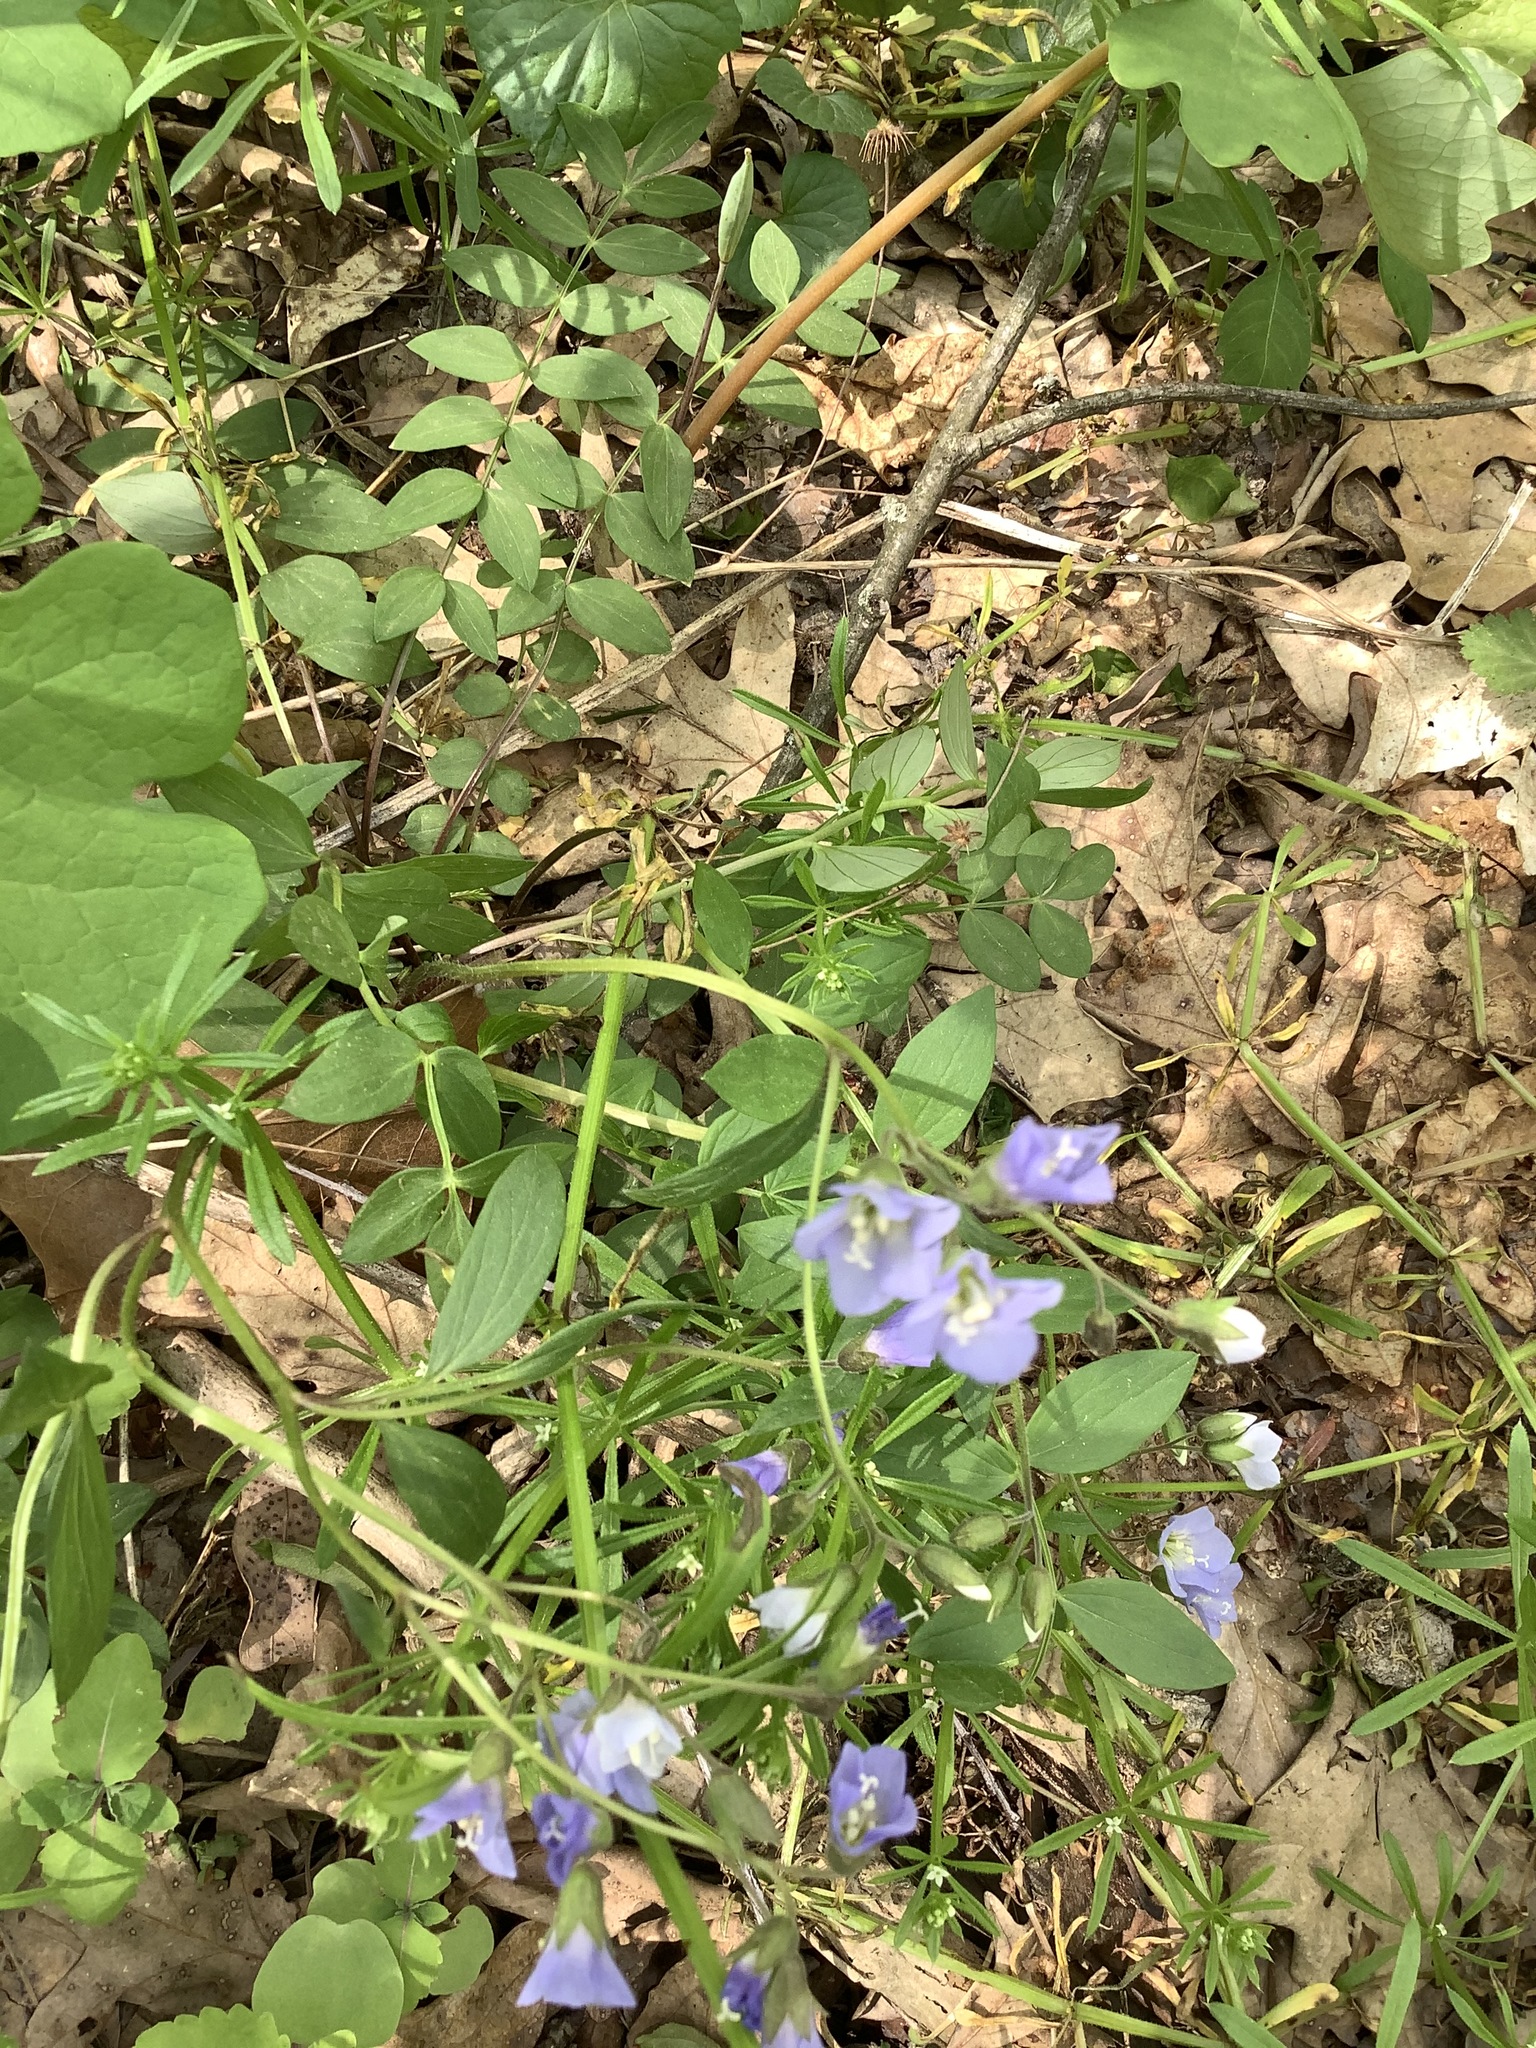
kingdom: Plantae
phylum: Tracheophyta
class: Magnoliopsida
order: Ericales
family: Polemoniaceae
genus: Polemonium
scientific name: Polemonium reptans
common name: Creeping jacob's-ladder
